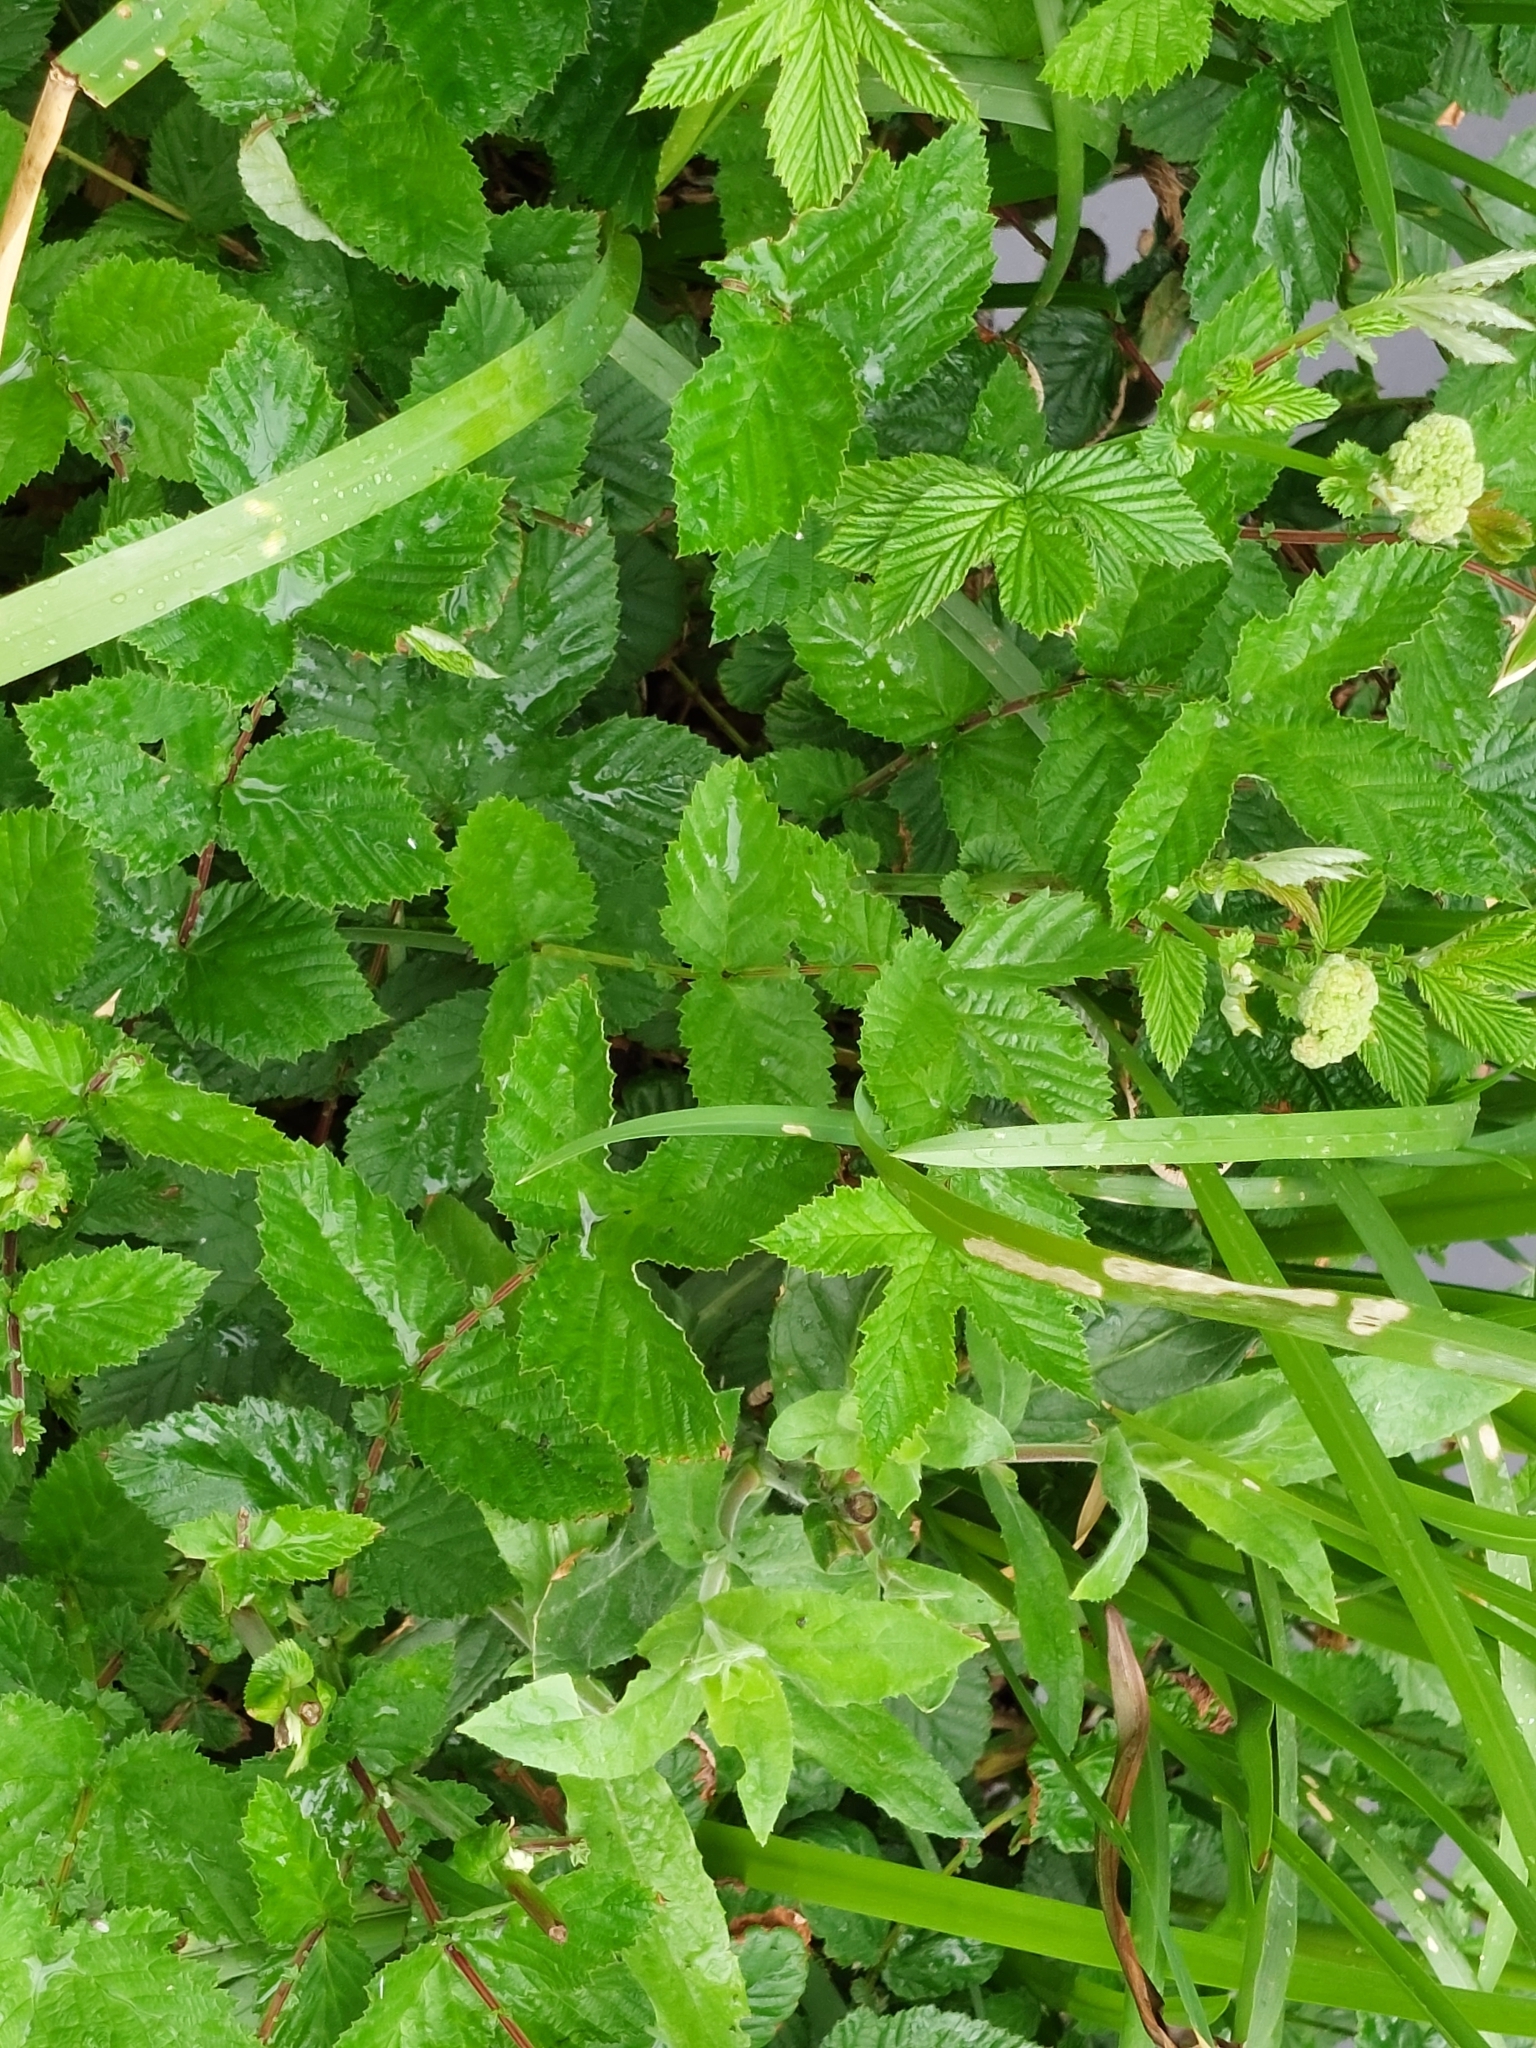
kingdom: Plantae
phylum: Tracheophyta
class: Magnoliopsida
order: Rosales
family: Rosaceae
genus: Filipendula
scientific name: Filipendula ulmaria
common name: Meadowsweet
